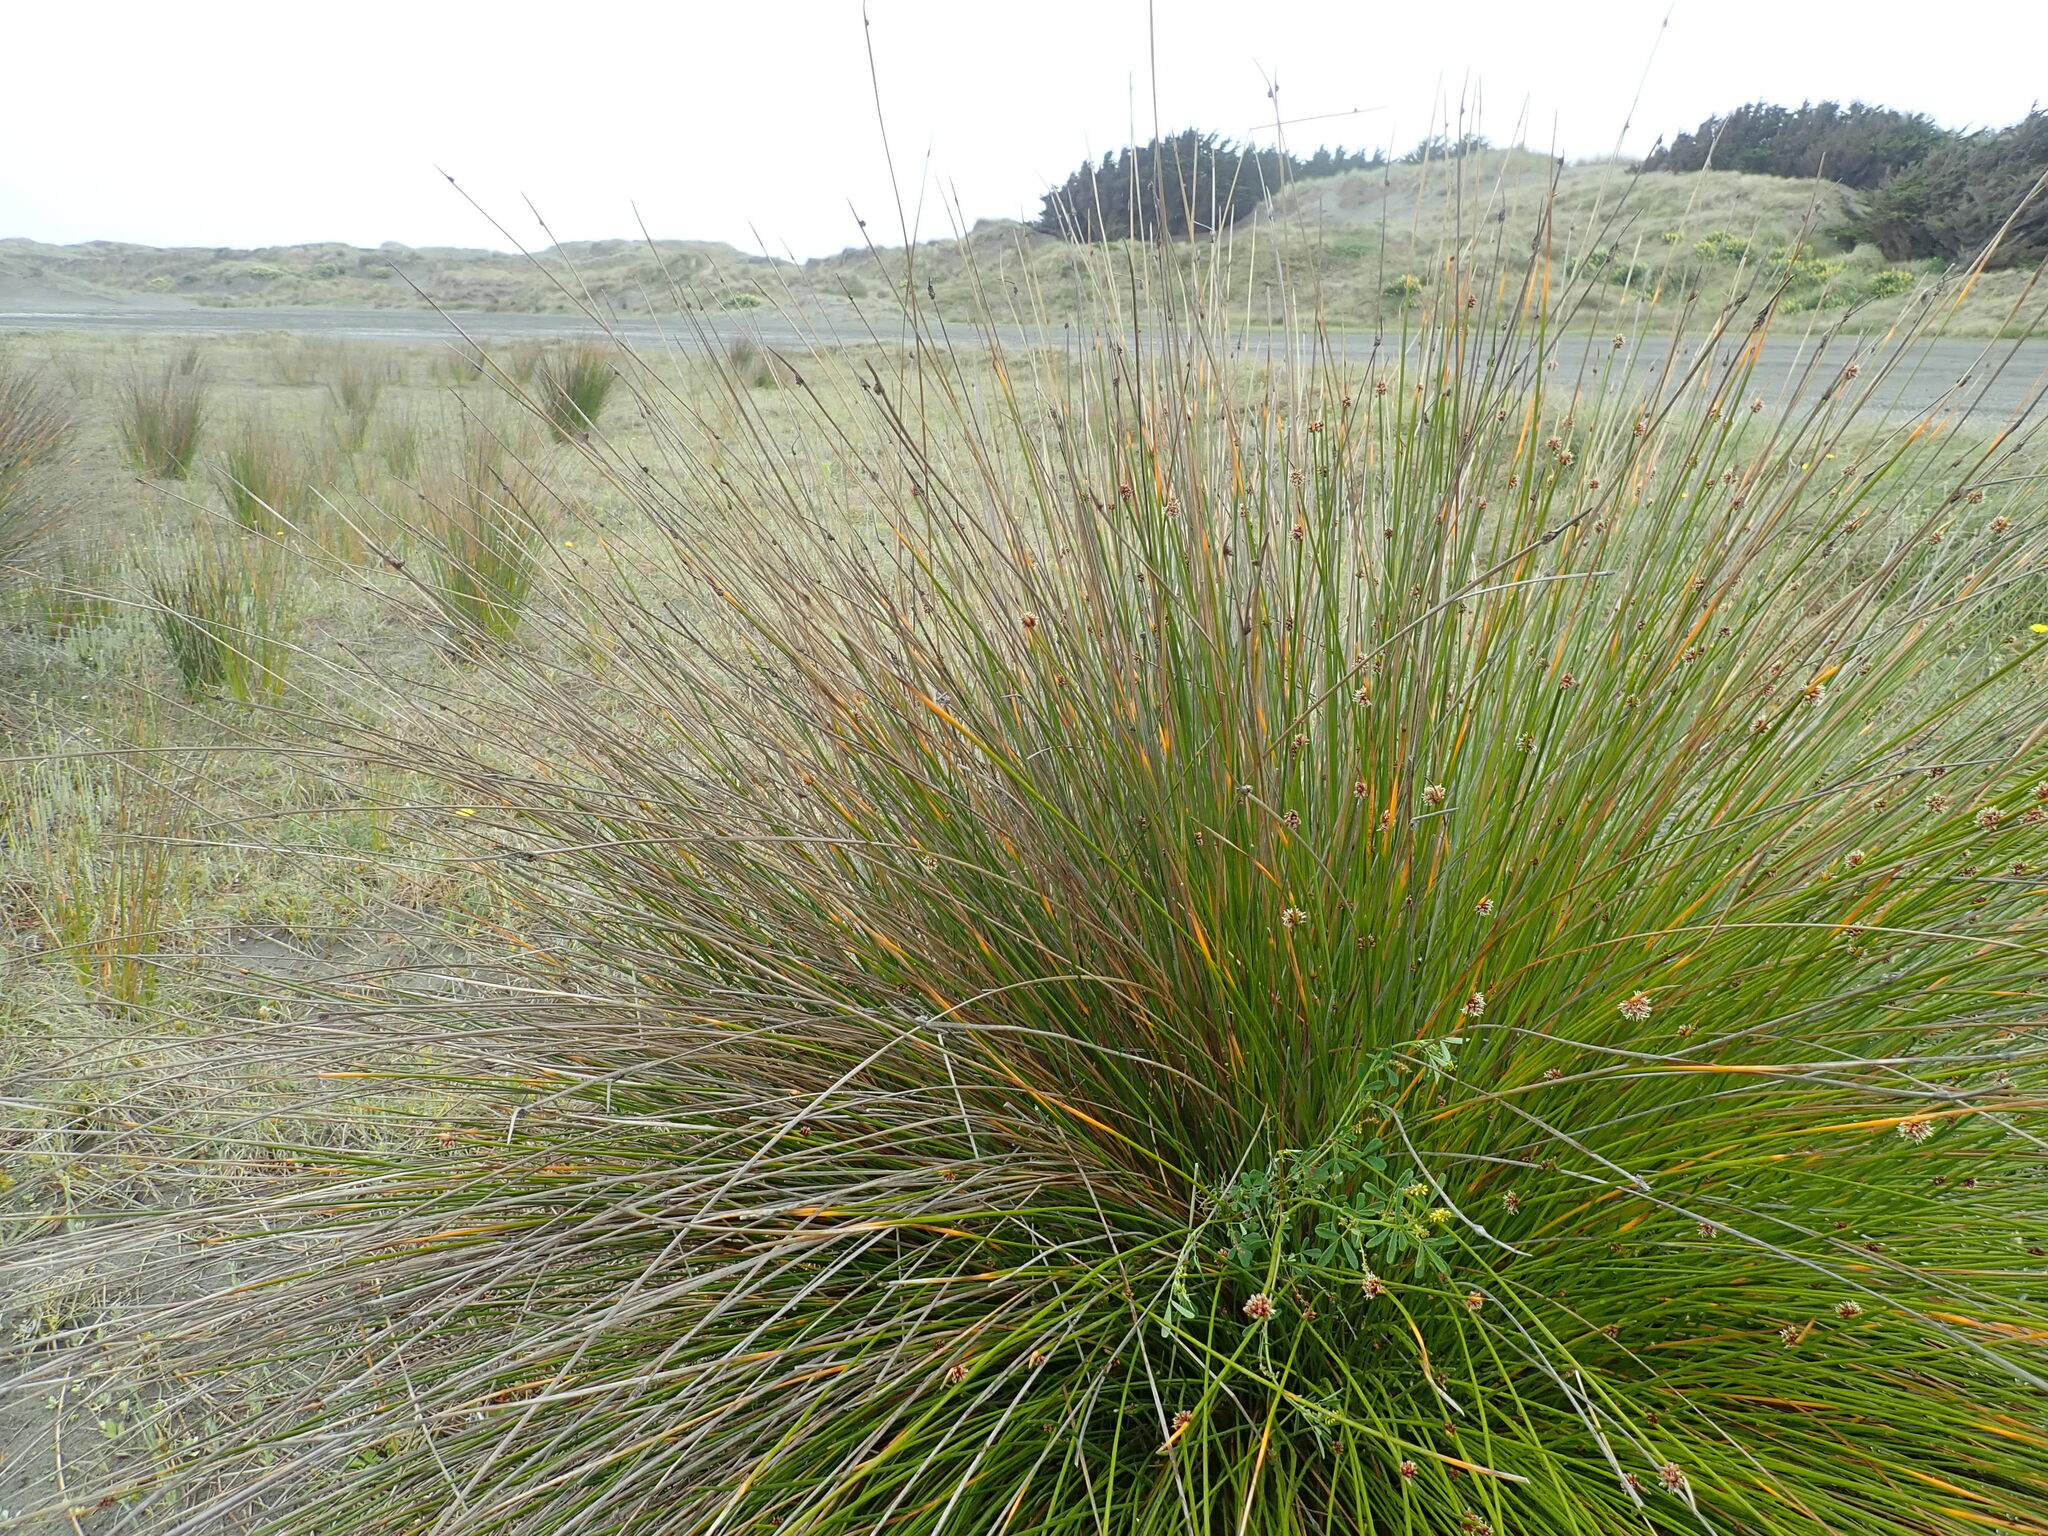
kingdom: Plantae
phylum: Tracheophyta
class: Liliopsida
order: Poales
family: Cyperaceae
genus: Ficinia
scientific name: Ficinia nodosa
